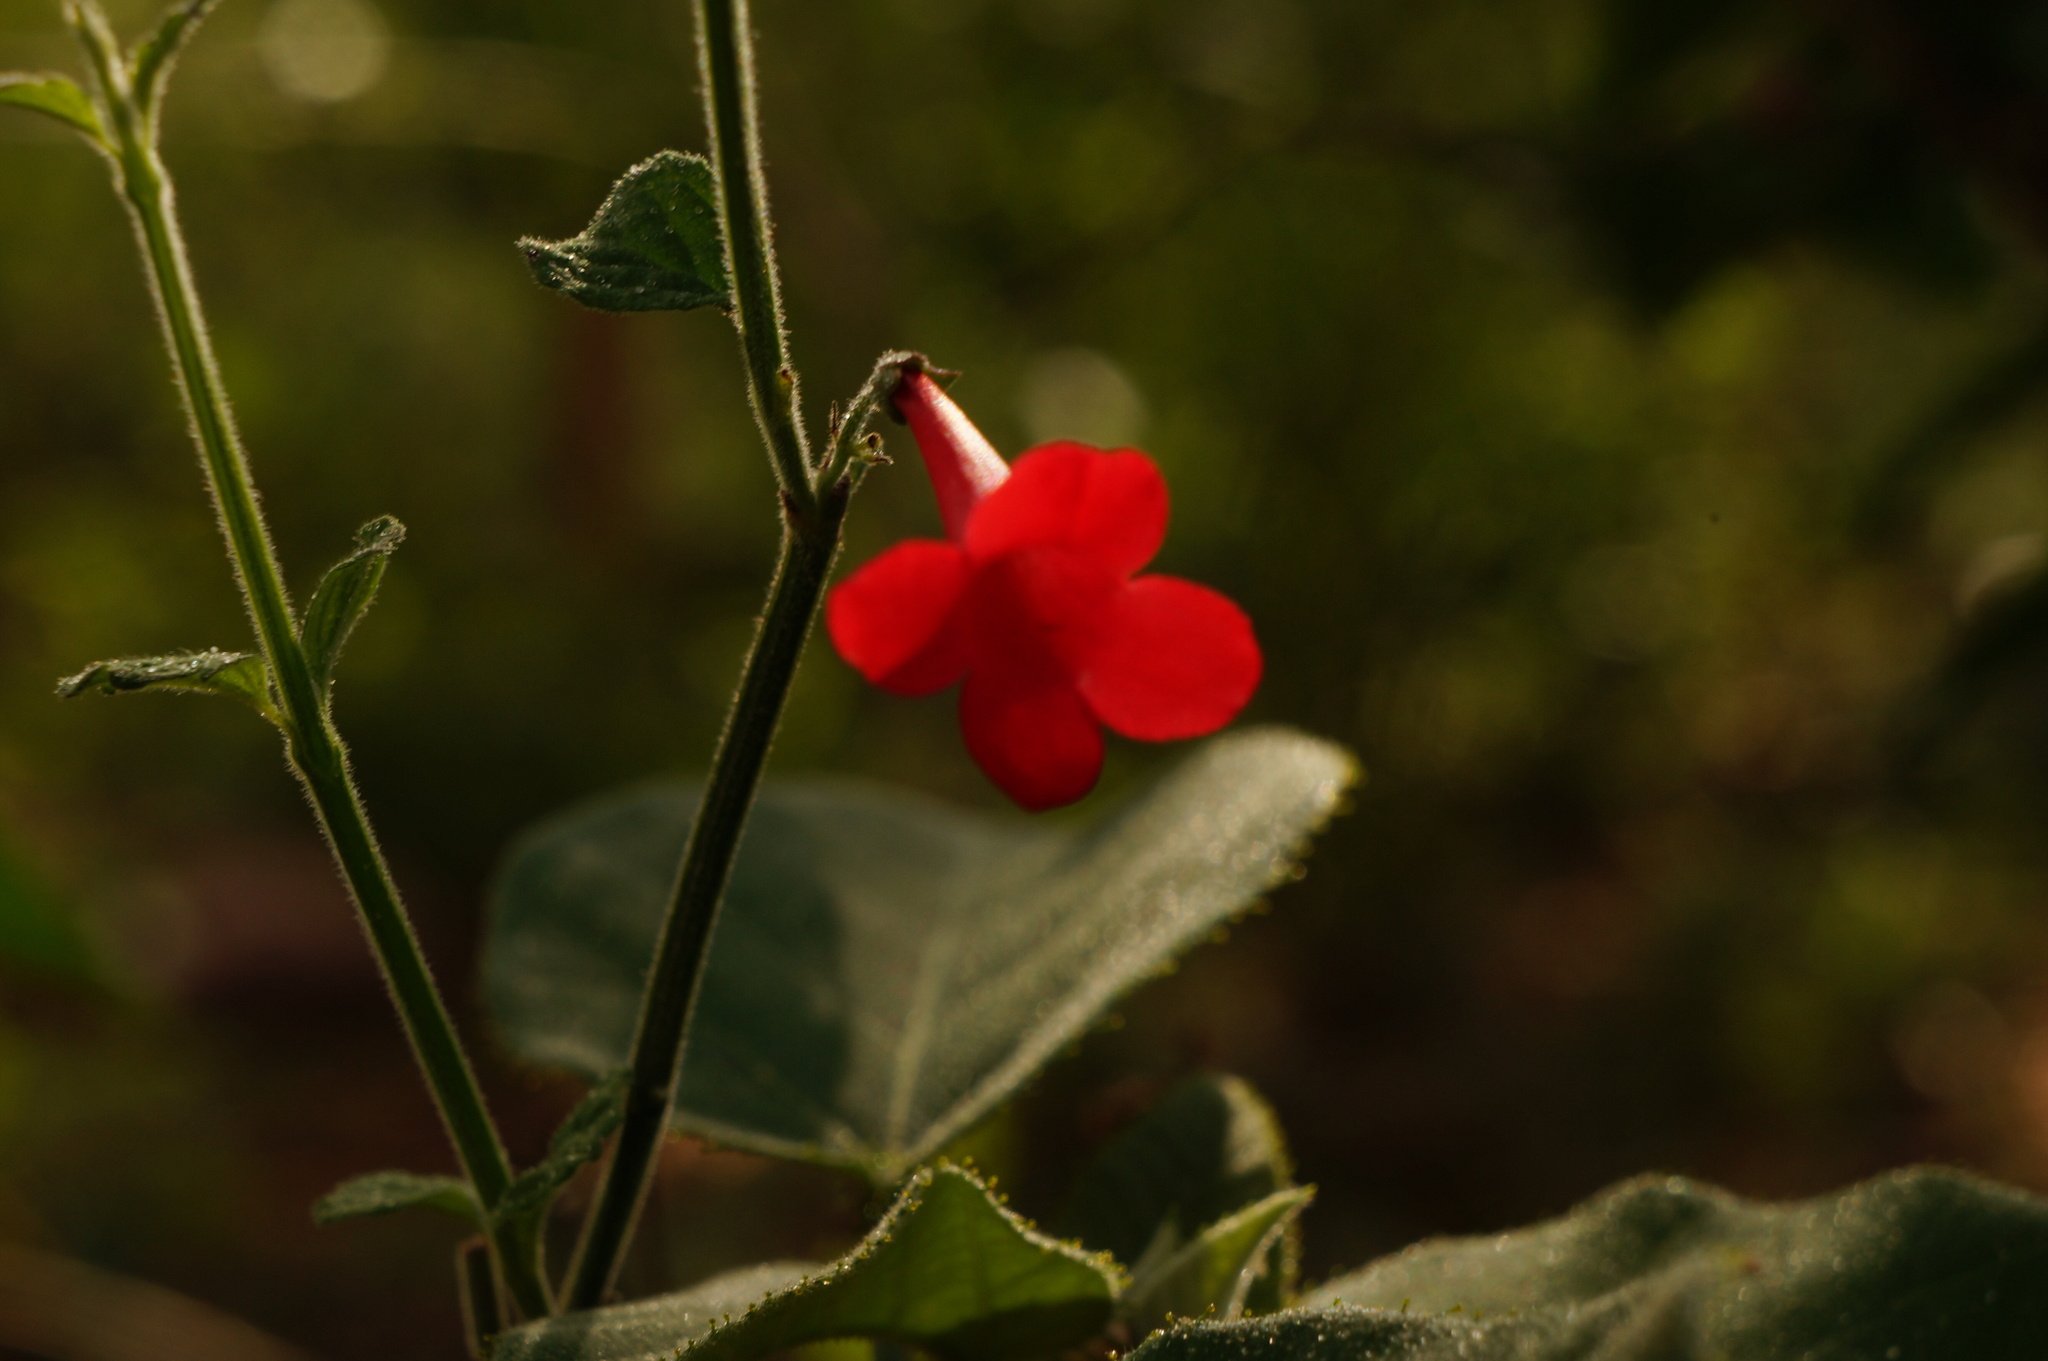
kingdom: Plantae
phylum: Tracheophyta
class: Magnoliopsida
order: Lamiales
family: Plantaginaceae
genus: Russelia
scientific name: Russelia polyedra
